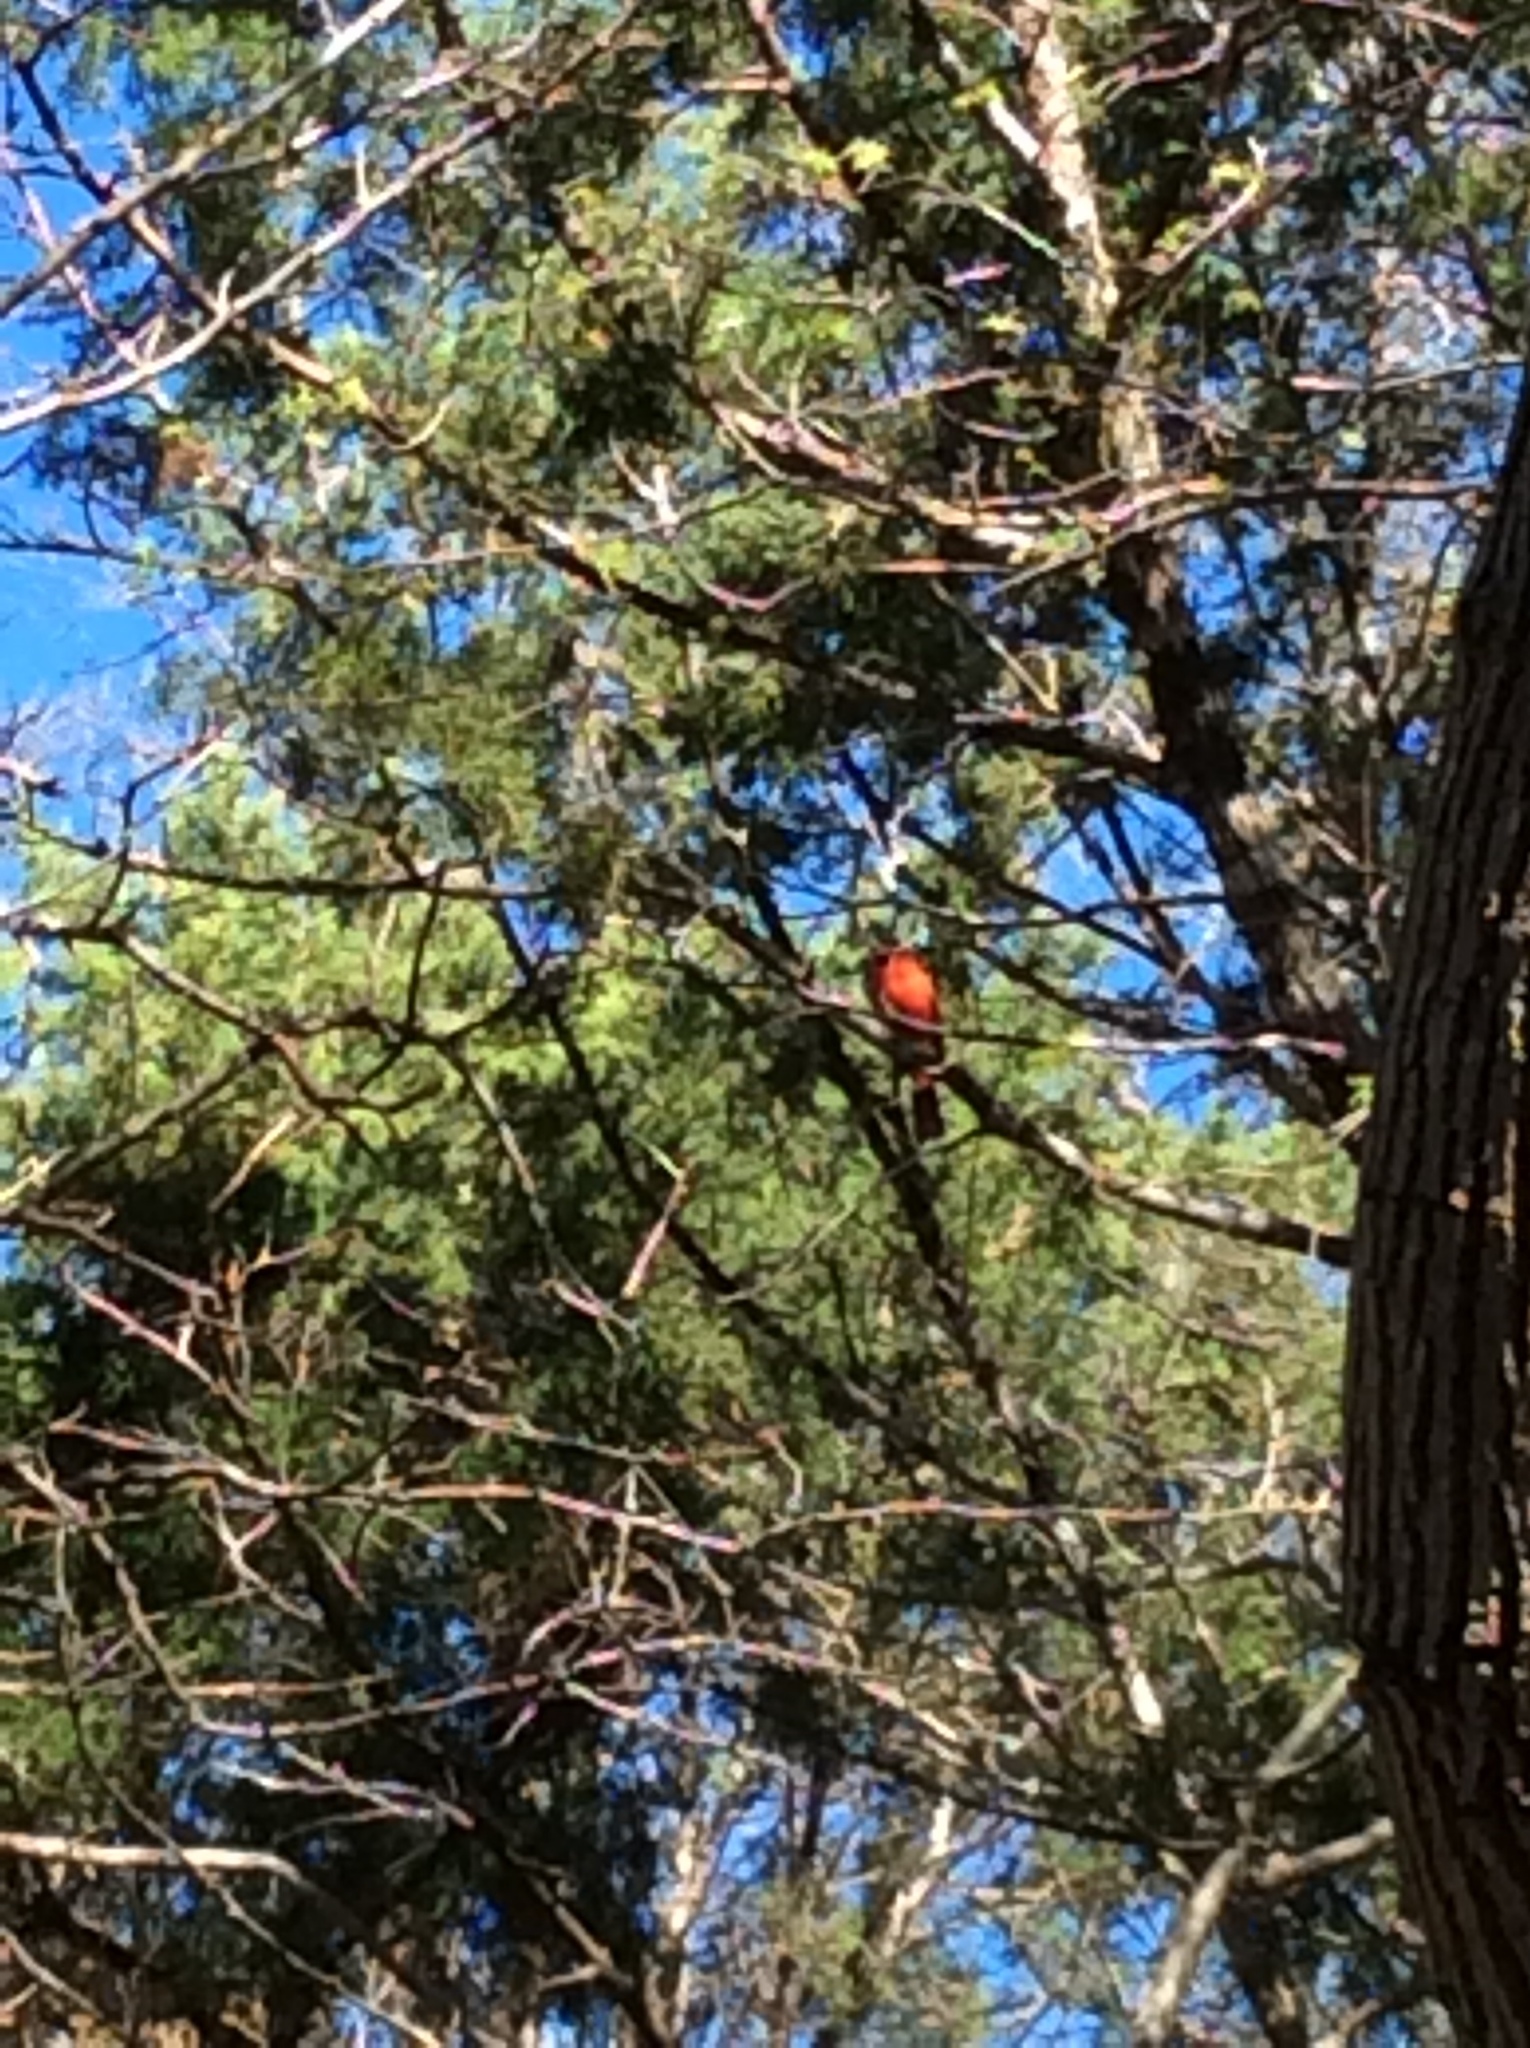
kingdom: Animalia
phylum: Chordata
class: Aves
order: Passeriformes
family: Cardinalidae
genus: Cardinalis
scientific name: Cardinalis cardinalis
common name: Northern cardinal
